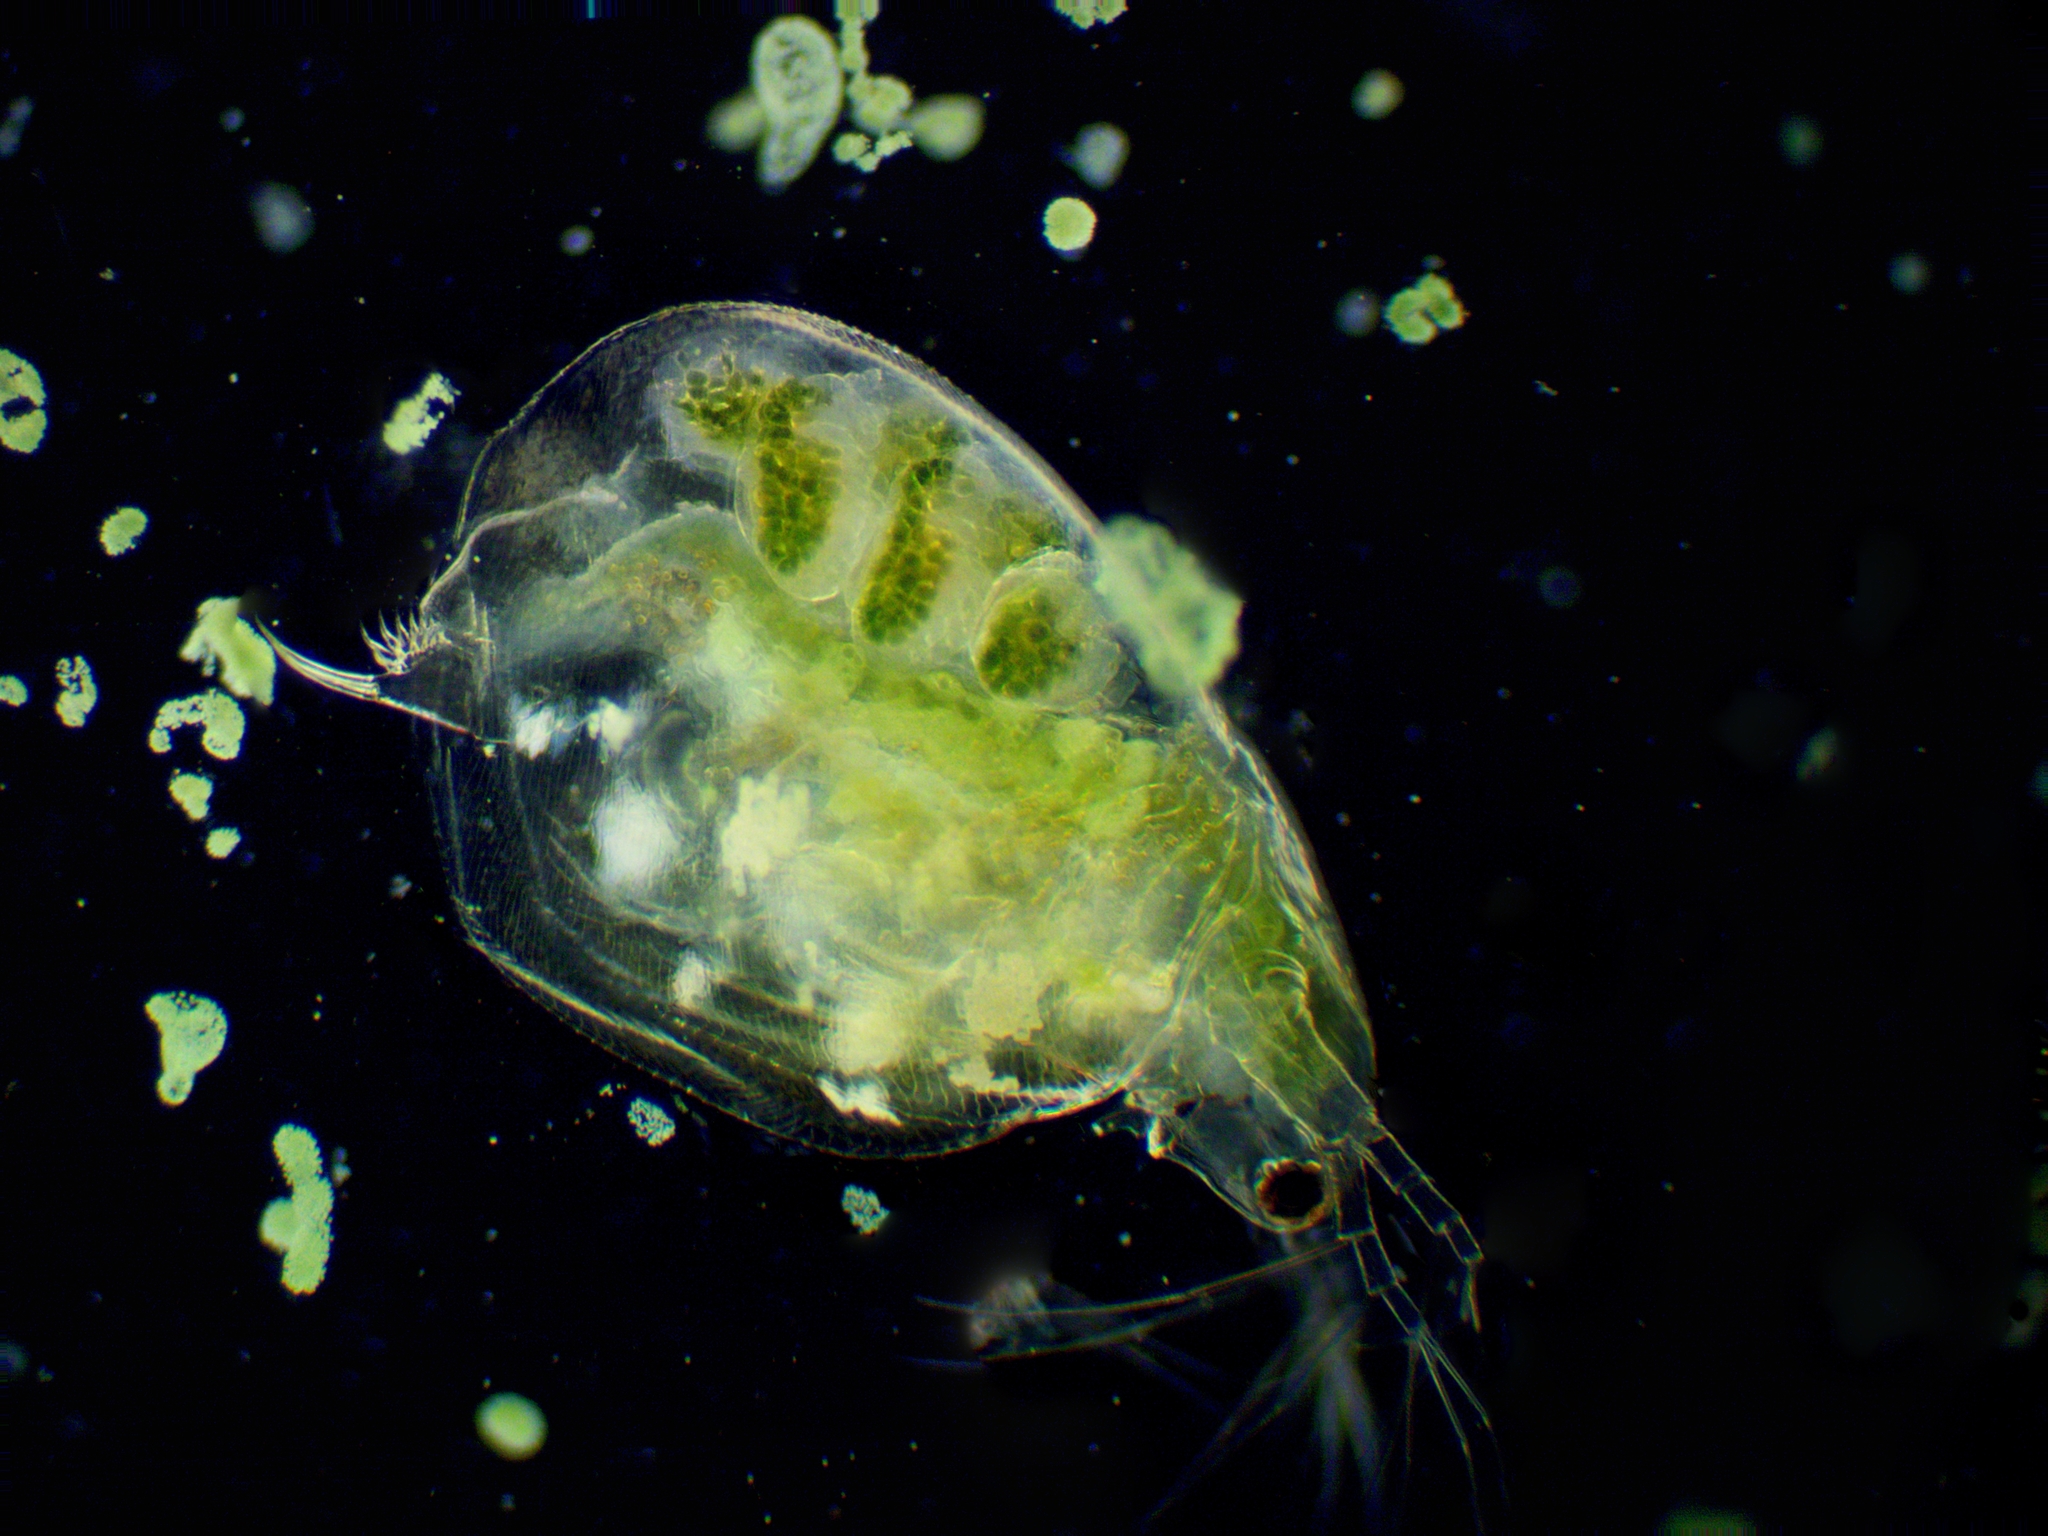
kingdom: Animalia
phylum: Arthropoda
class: Branchiopoda
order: Diplostraca
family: Daphniidae
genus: Simocephalus
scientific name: Simocephalus vetulus
